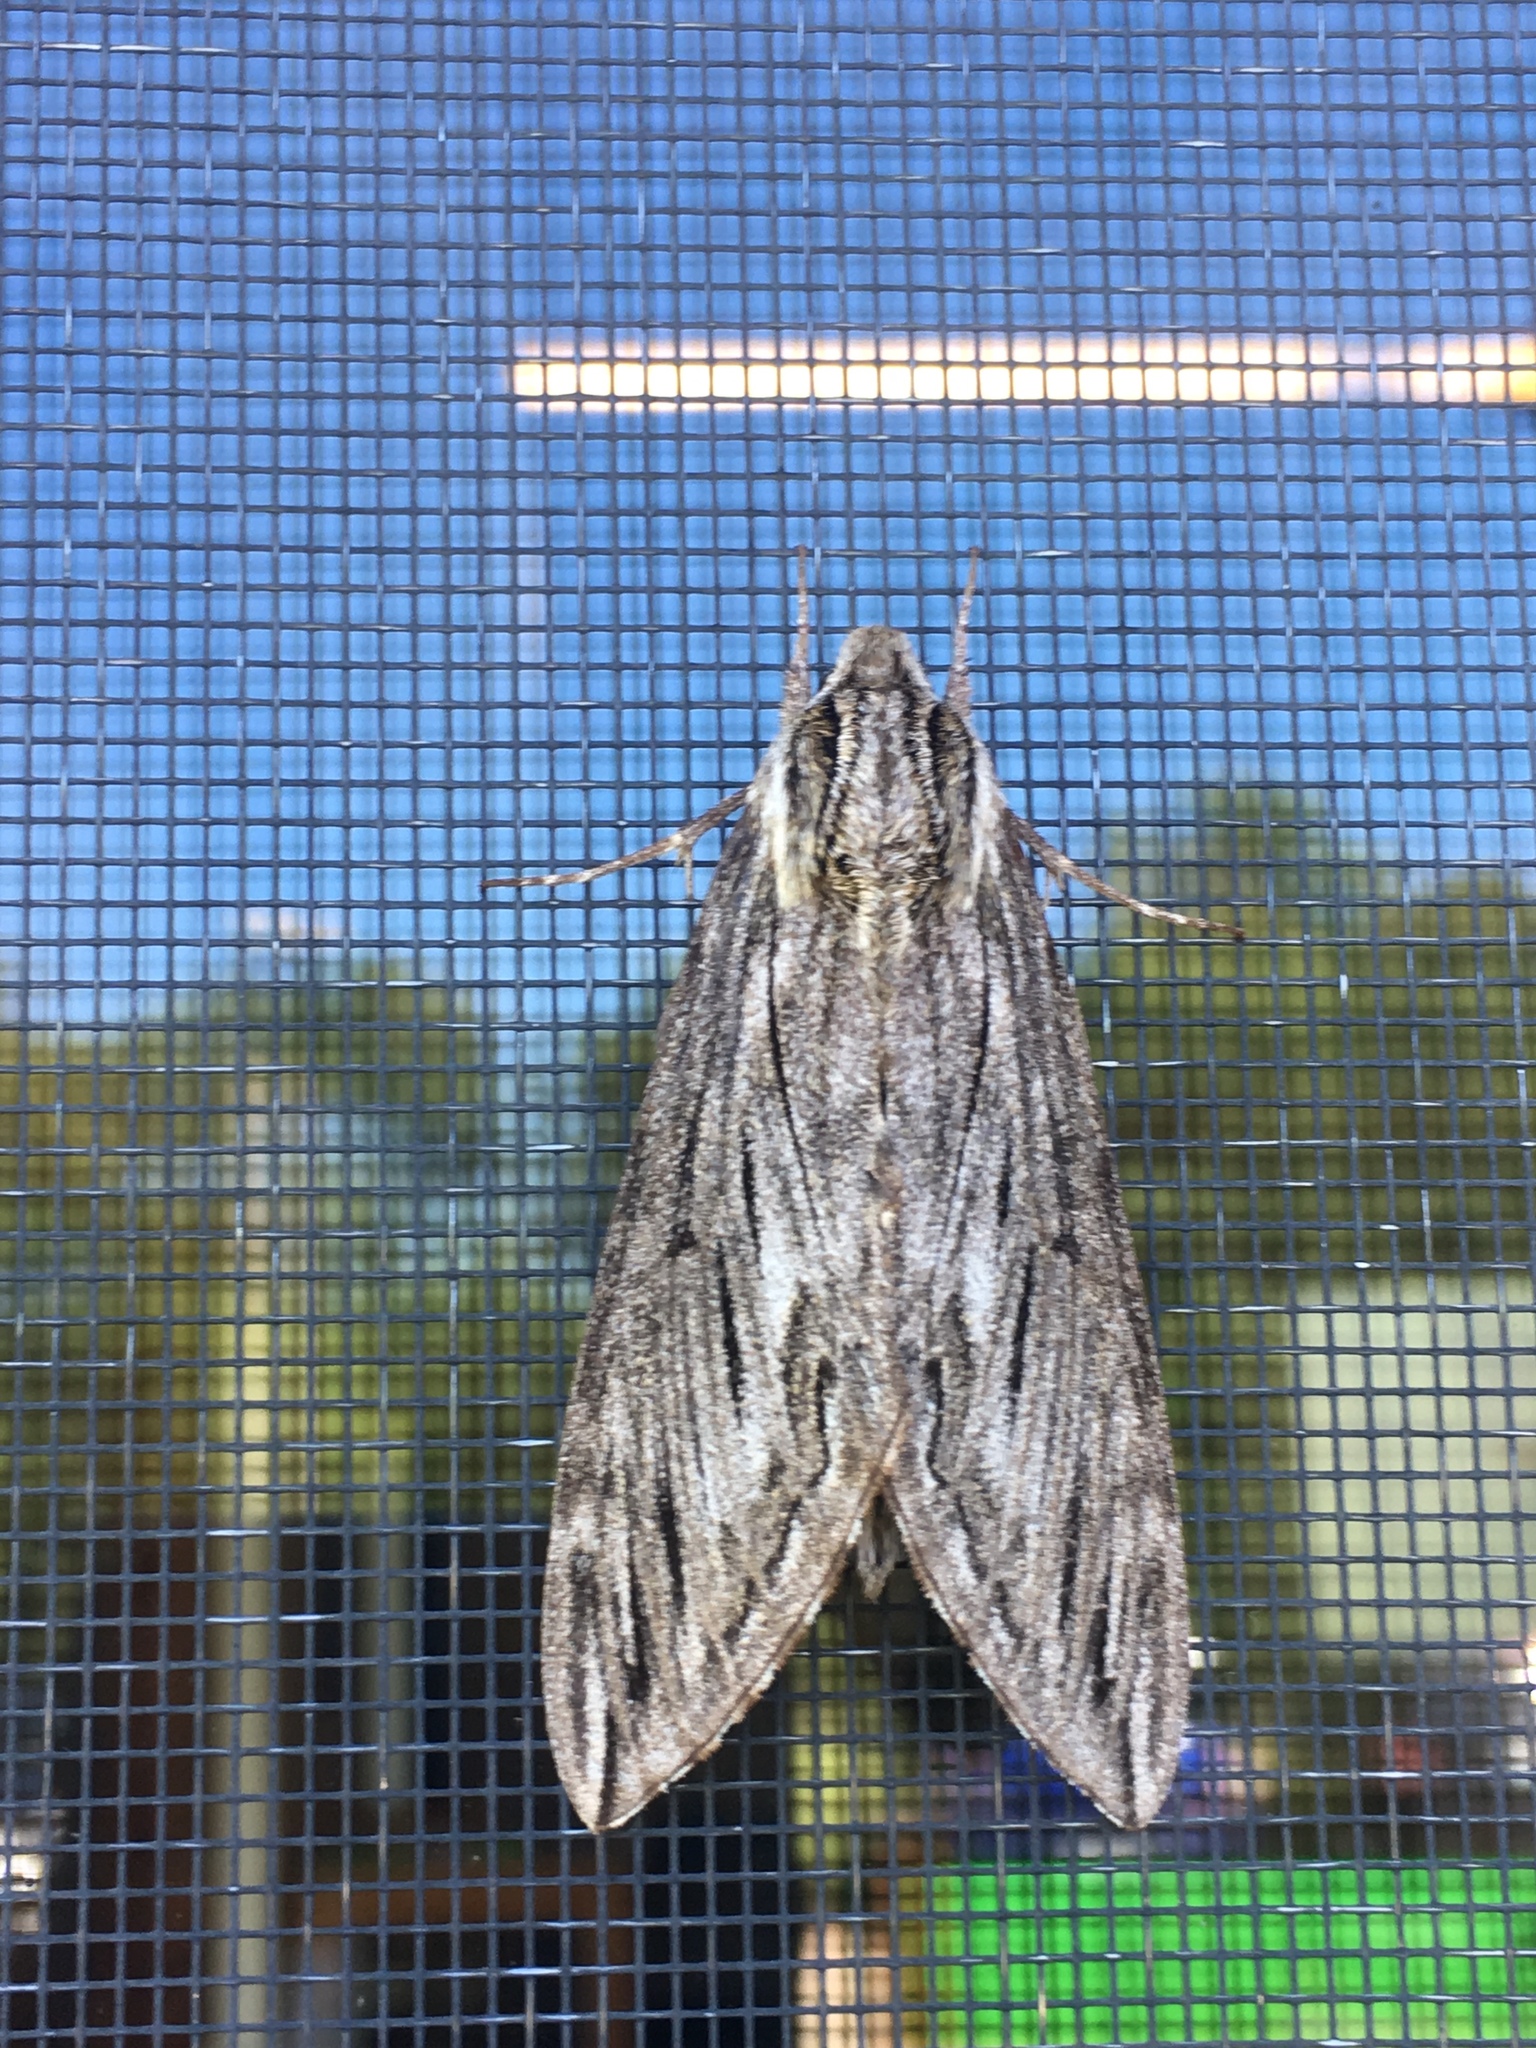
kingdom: Animalia
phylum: Arthropoda
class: Insecta
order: Lepidoptera
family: Sphingidae
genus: Sphinx
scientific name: Sphinx canadensis
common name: Canadian sphinx
